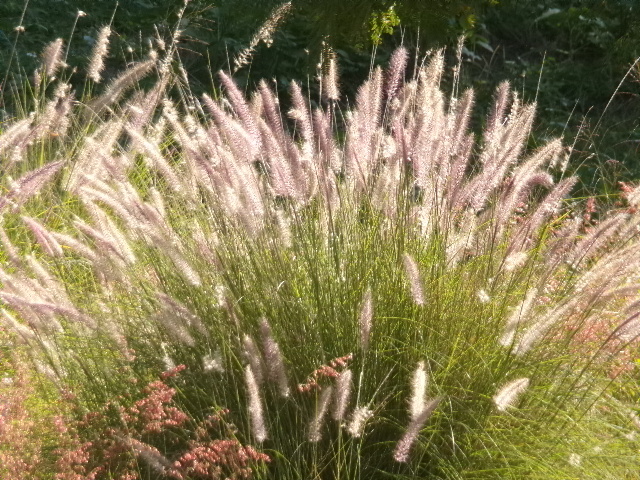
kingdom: Plantae
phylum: Tracheophyta
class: Liliopsida
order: Poales
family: Poaceae
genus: Cenchrus
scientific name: Cenchrus setaceus
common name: Crimson fountaingrass
